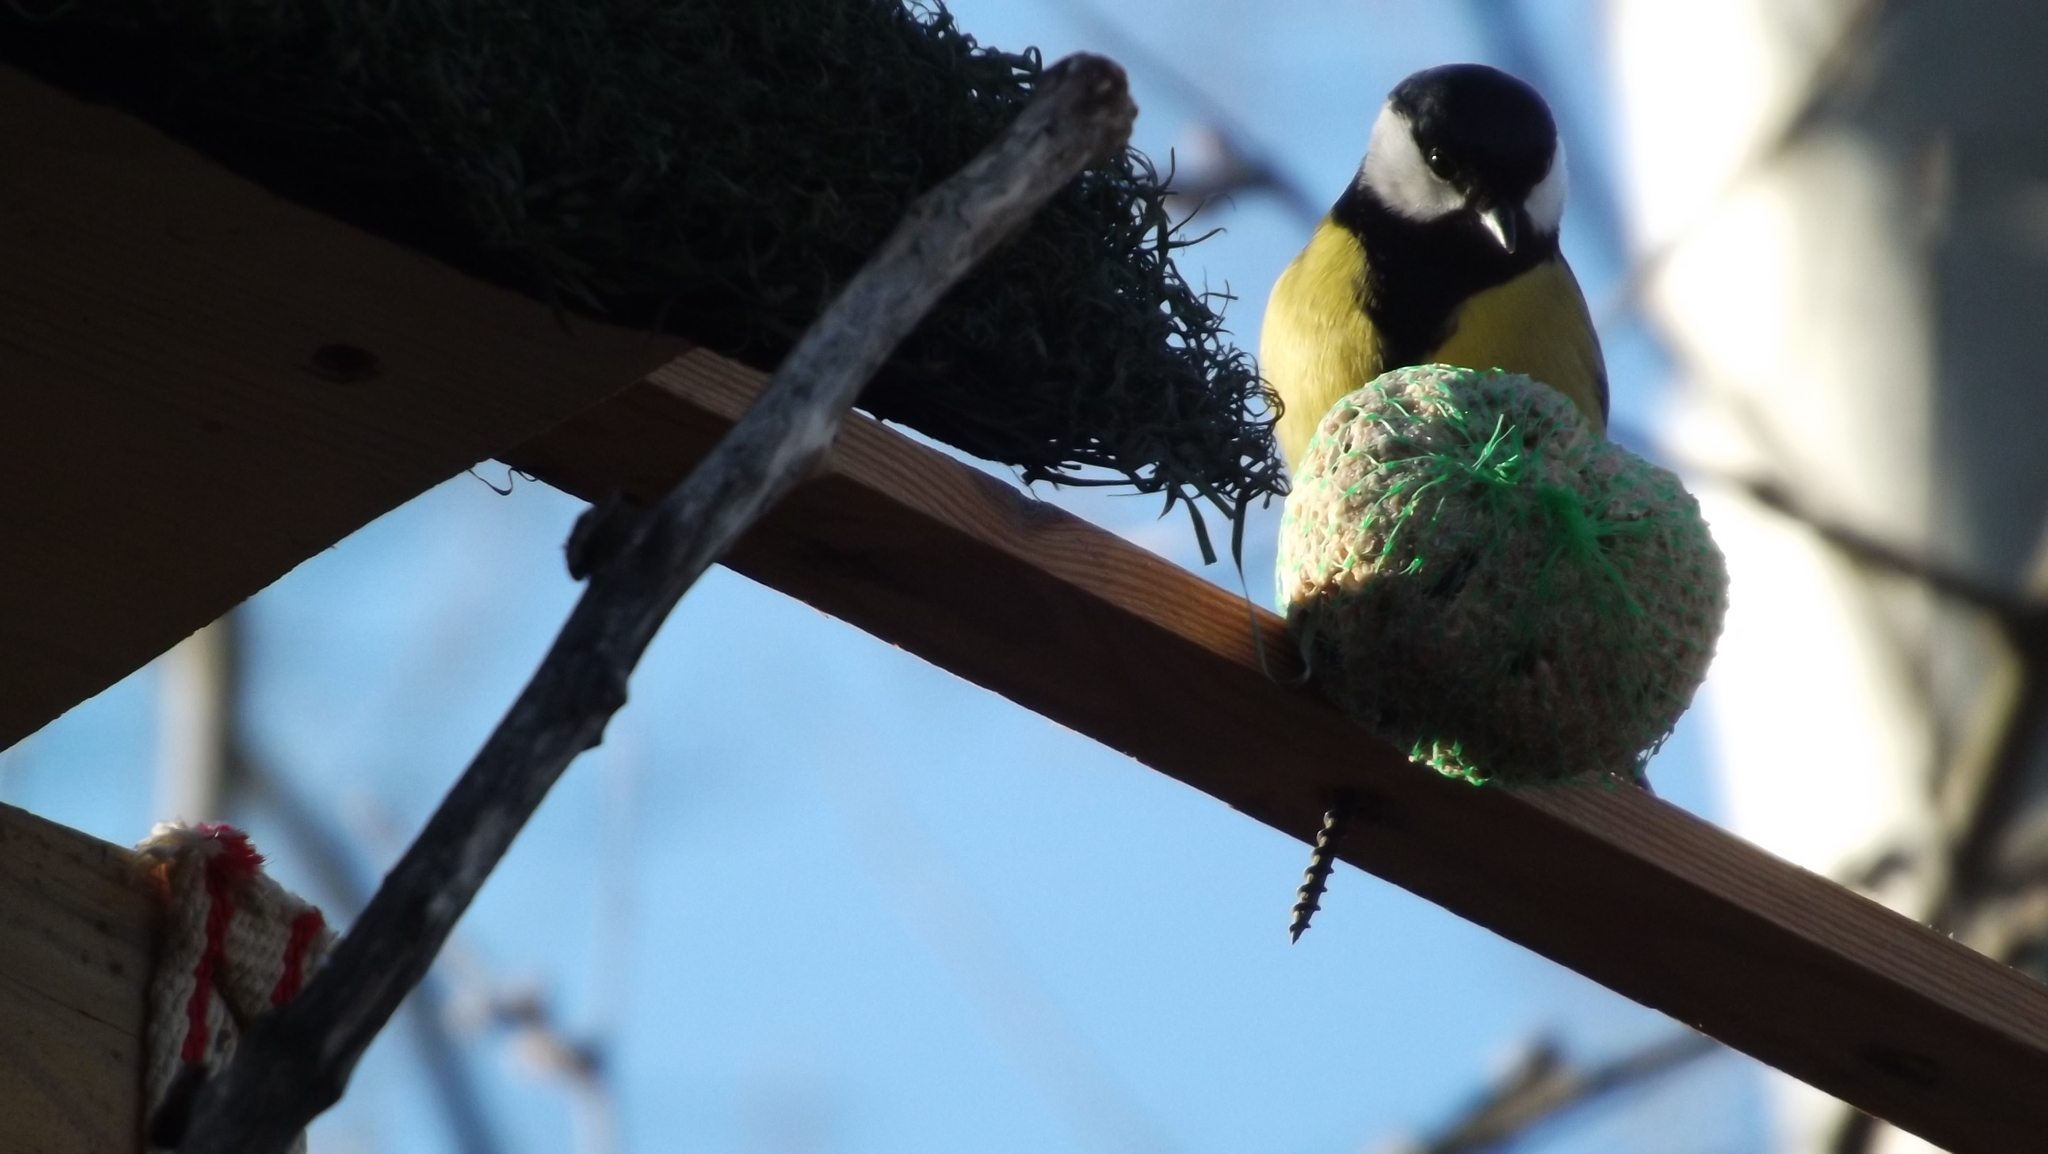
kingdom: Animalia
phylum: Chordata
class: Aves
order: Passeriformes
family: Paridae
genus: Parus
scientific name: Parus major
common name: Great tit
